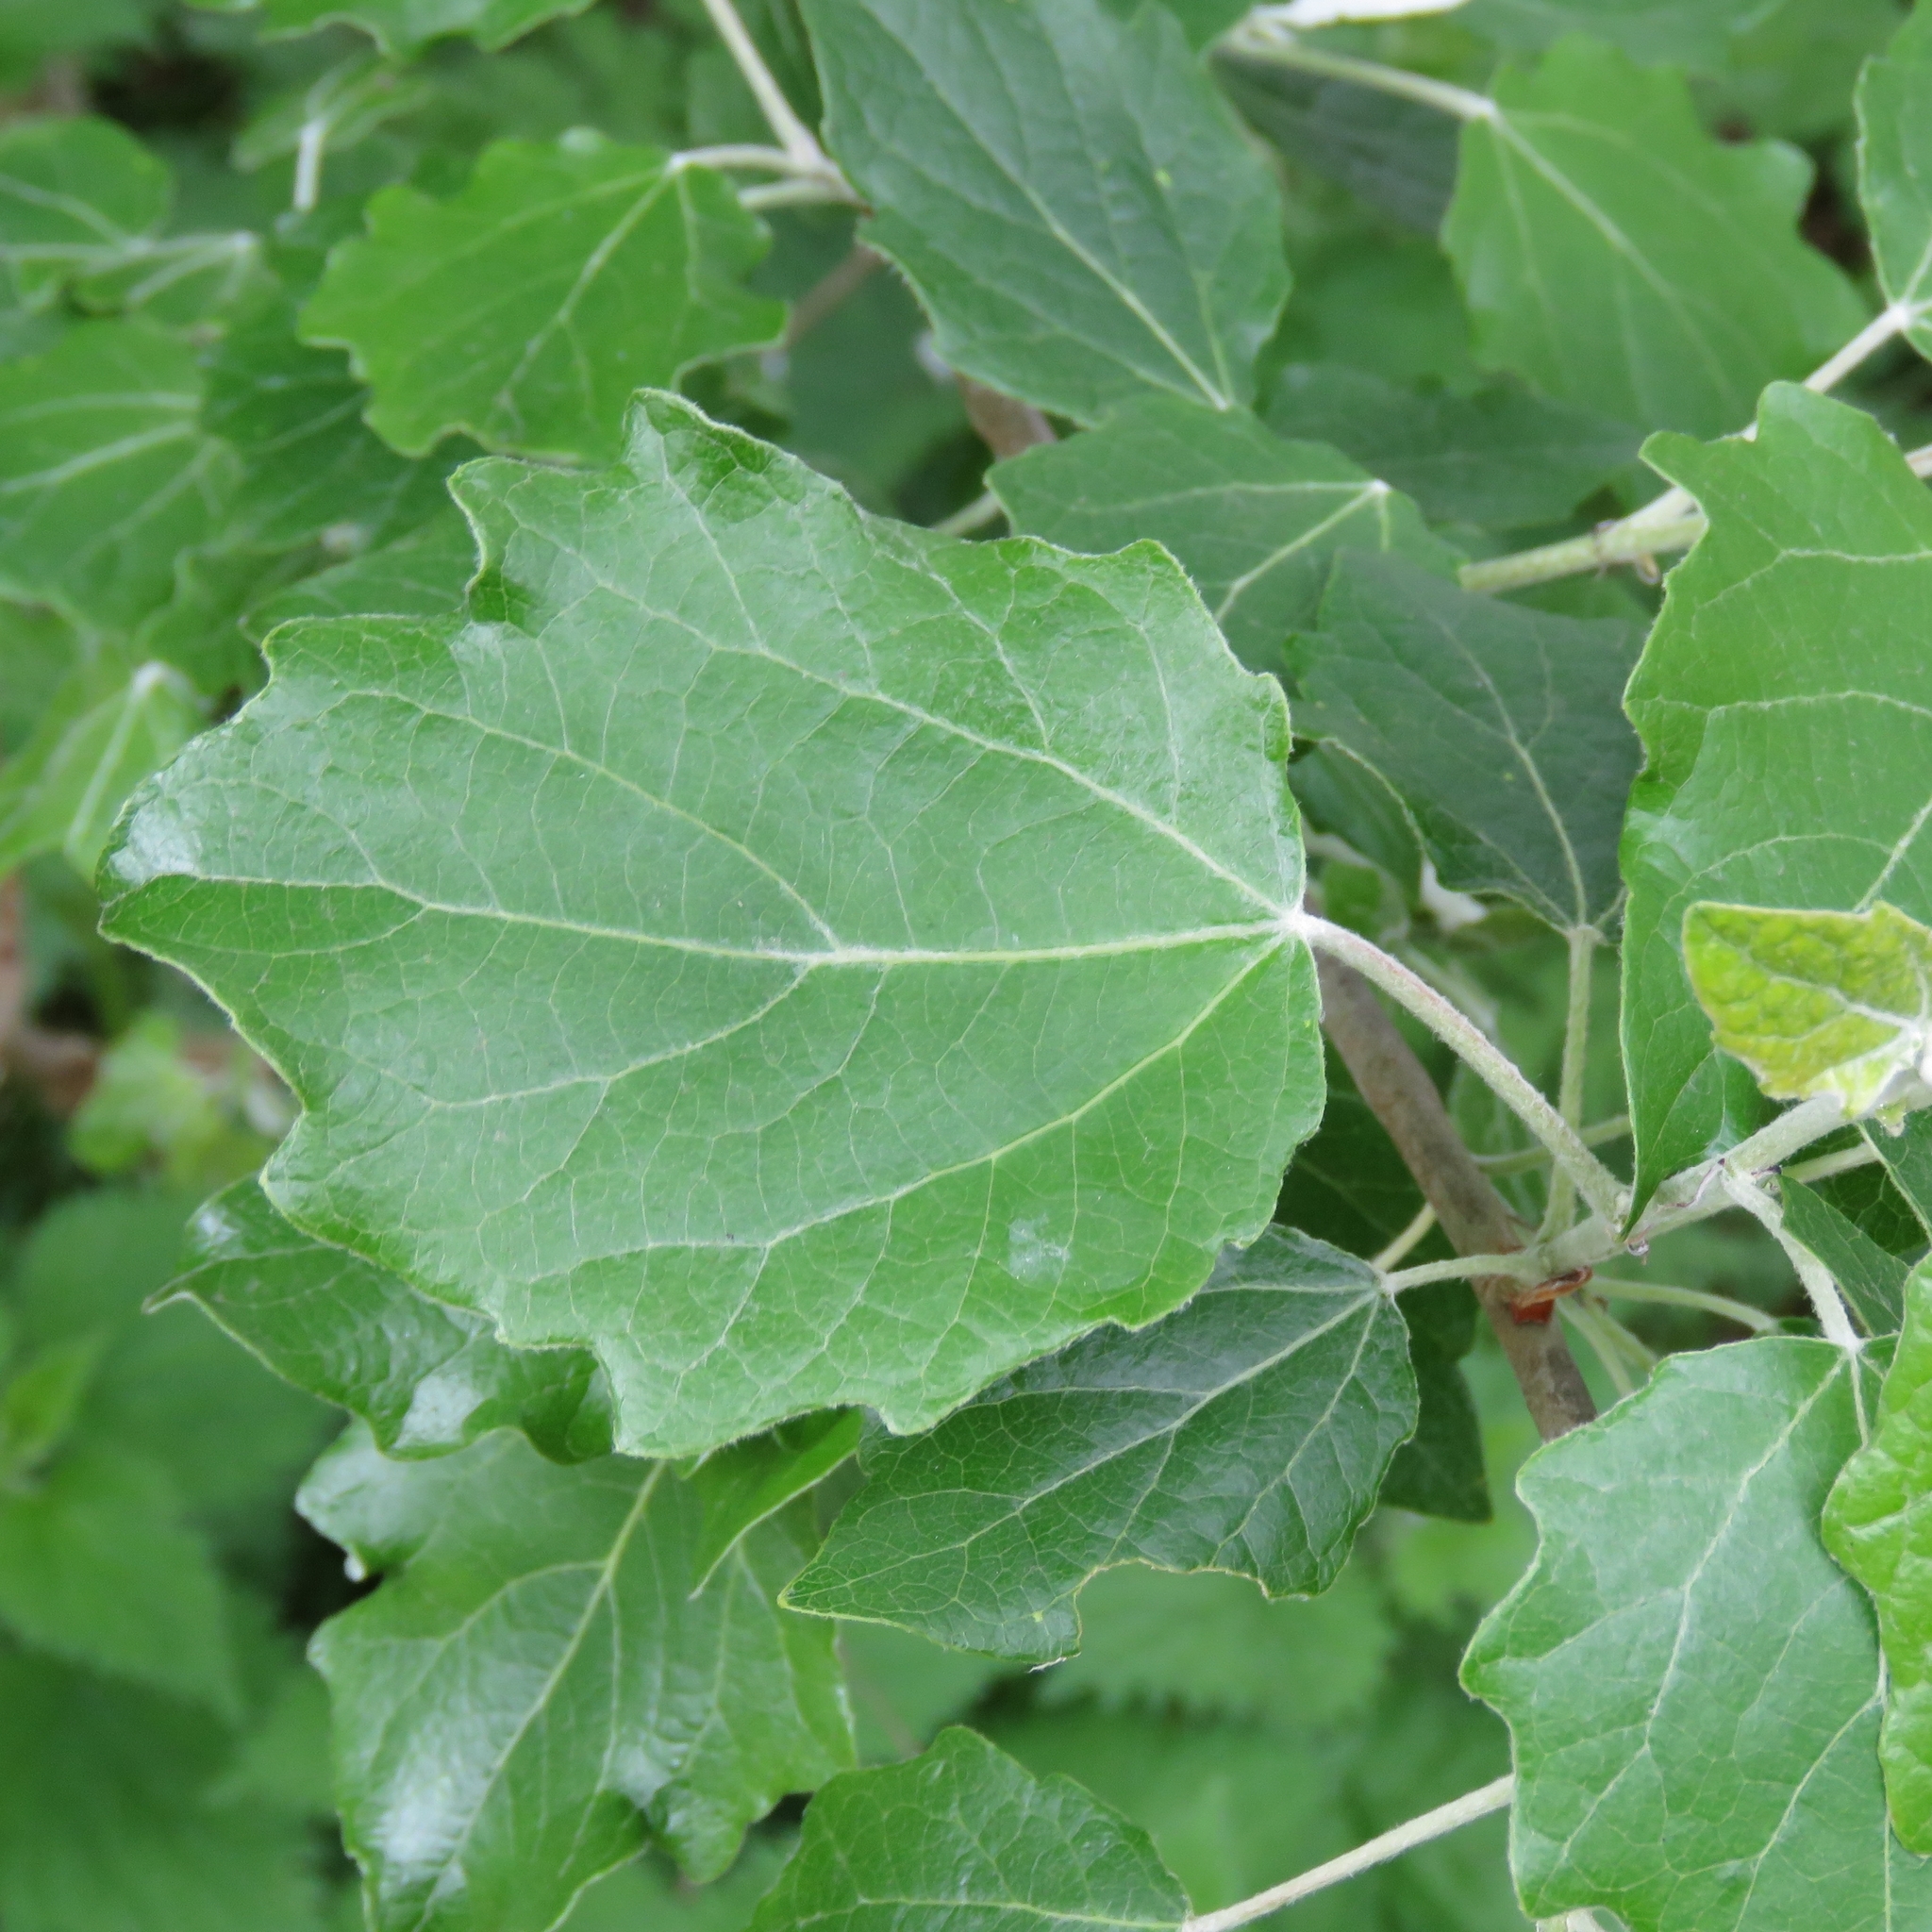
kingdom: Plantae
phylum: Tracheophyta
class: Magnoliopsida
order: Malpighiales
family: Salicaceae
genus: Populus
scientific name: Populus tremula
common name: European aspen
